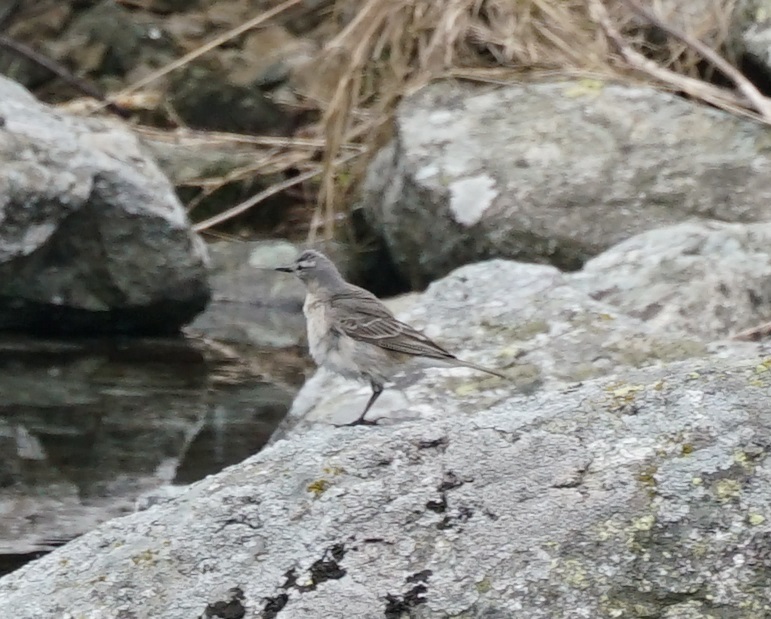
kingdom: Animalia
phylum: Chordata
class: Aves
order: Passeriformes
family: Motacillidae
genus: Anthus
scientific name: Anthus spinoletta
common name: Water pipit
